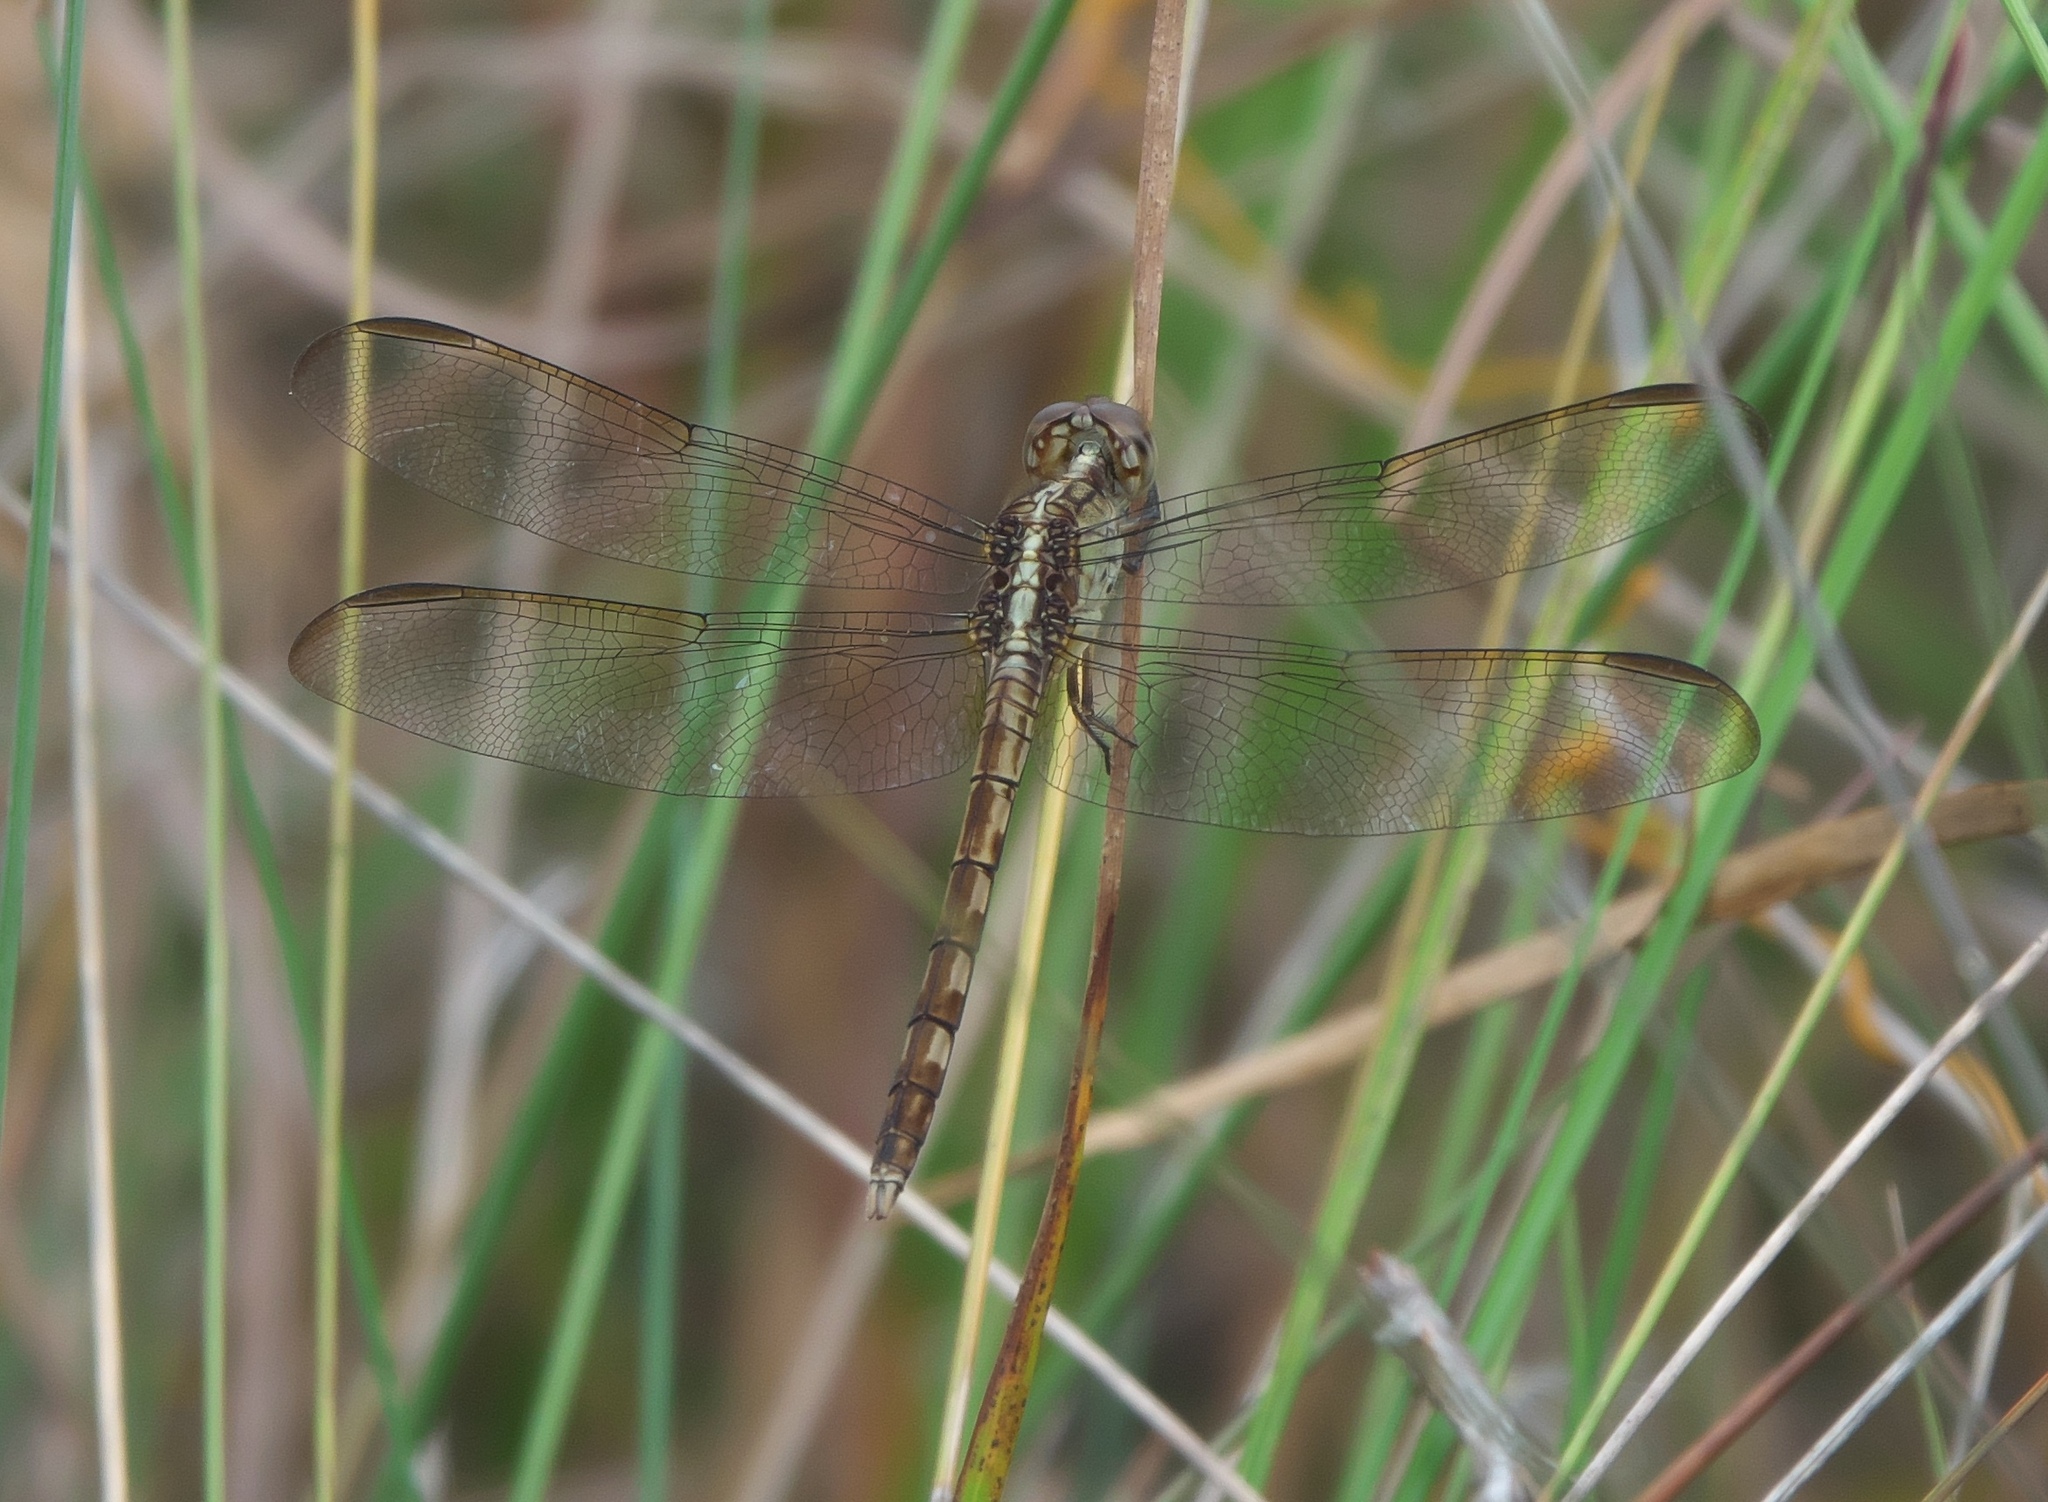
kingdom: Animalia
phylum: Arthropoda
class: Insecta
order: Odonata
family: Libellulidae
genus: Erythrodiplax
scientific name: Erythrodiplax umbrata
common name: Band-winged dragonlet
